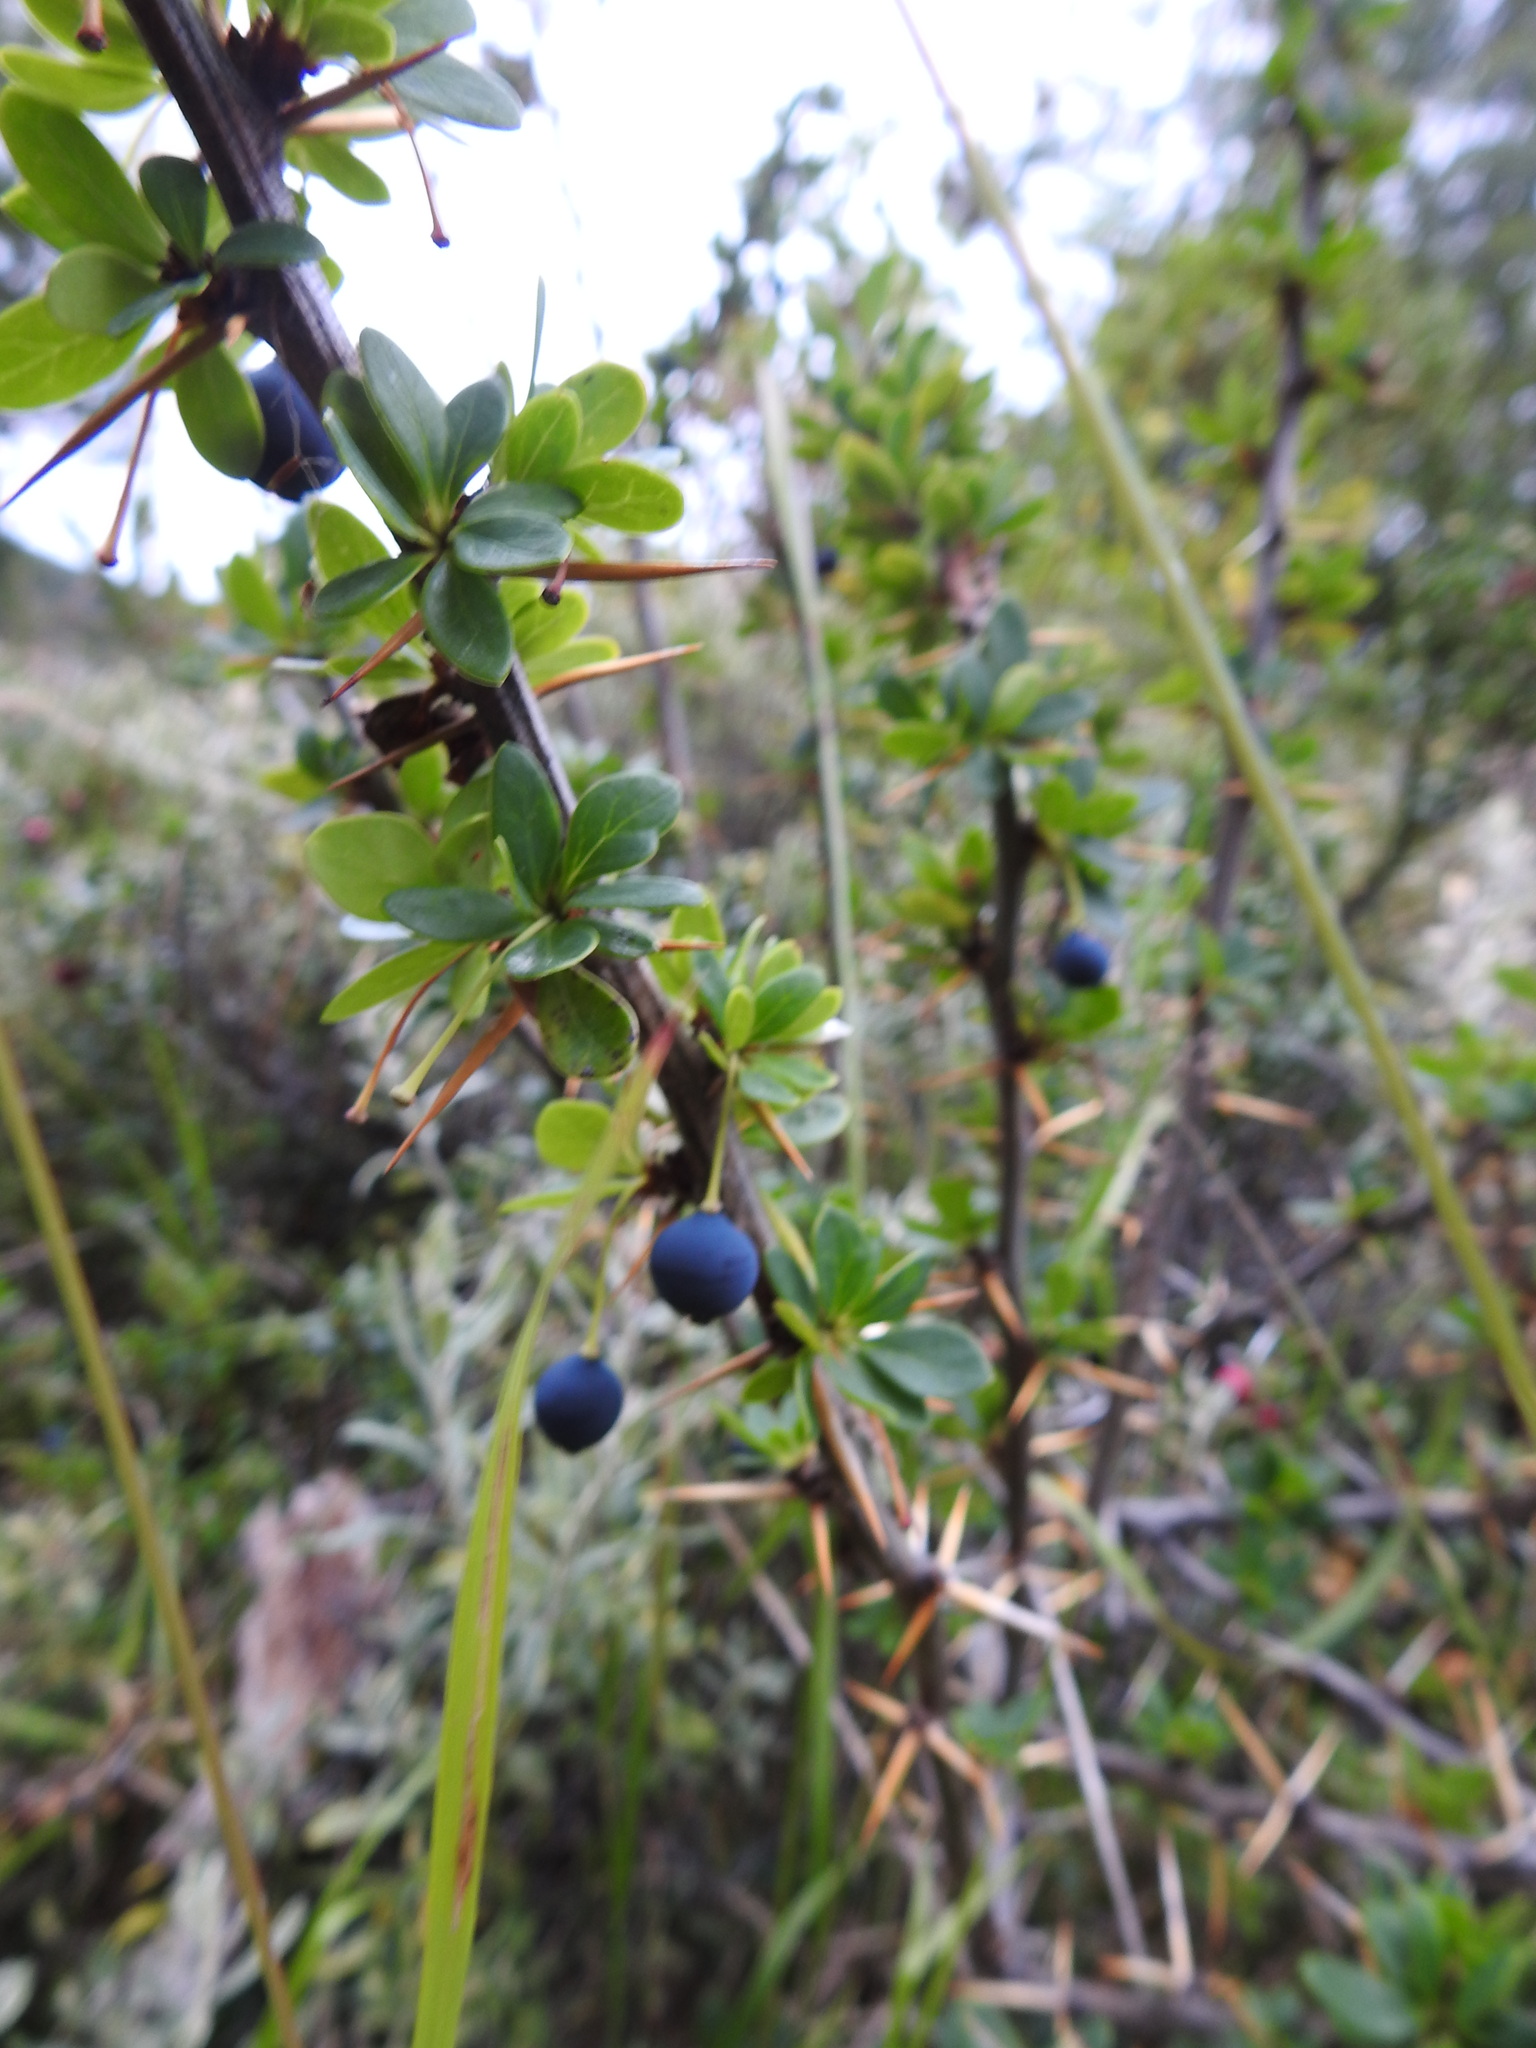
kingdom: Plantae
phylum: Tracheophyta
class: Magnoliopsida
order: Ranunculales
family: Berberidaceae
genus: Berberis
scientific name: Berberis microphylla
